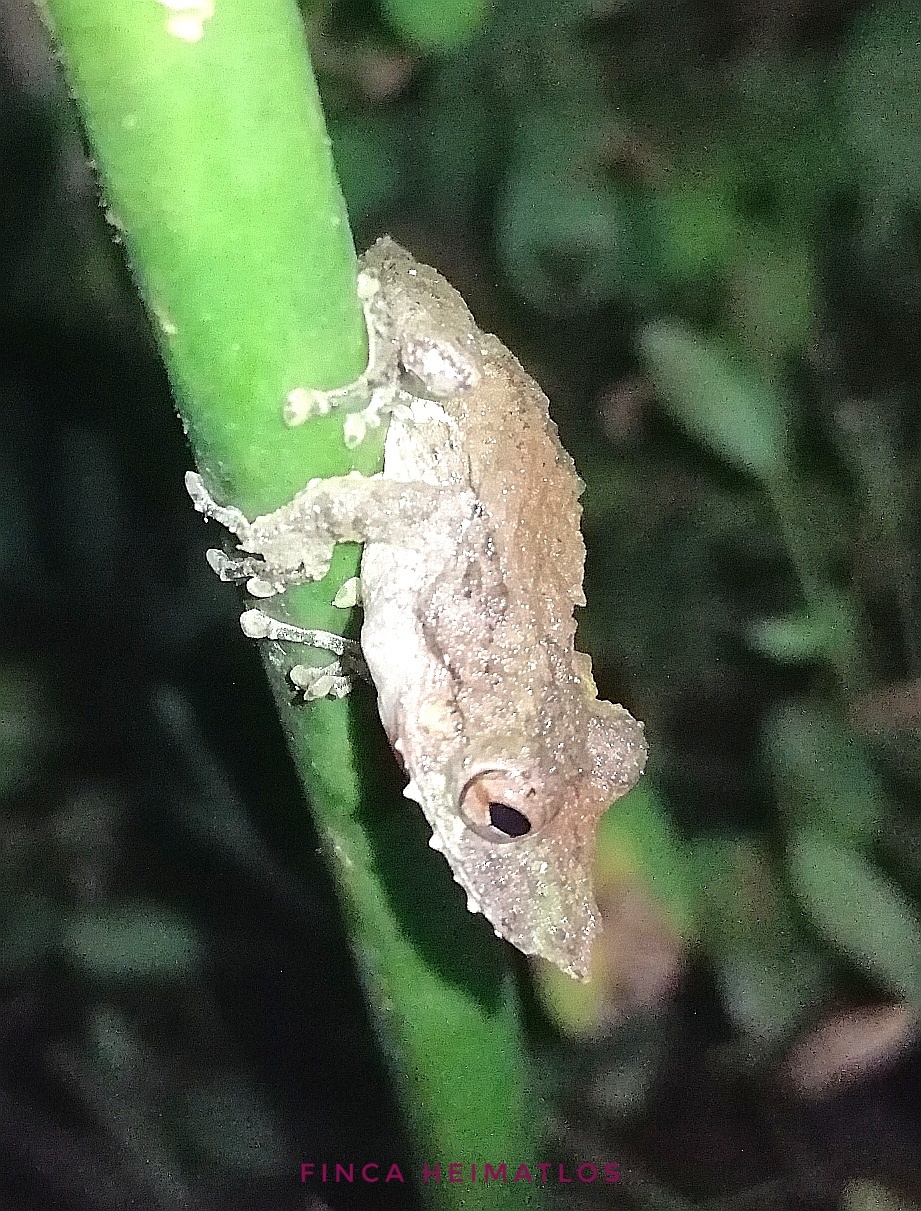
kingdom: Animalia
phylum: Chordata
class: Amphibia
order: Anura
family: Hylidae
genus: Scinax
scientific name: Scinax garbei
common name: Eirunepe snouted treefrog
